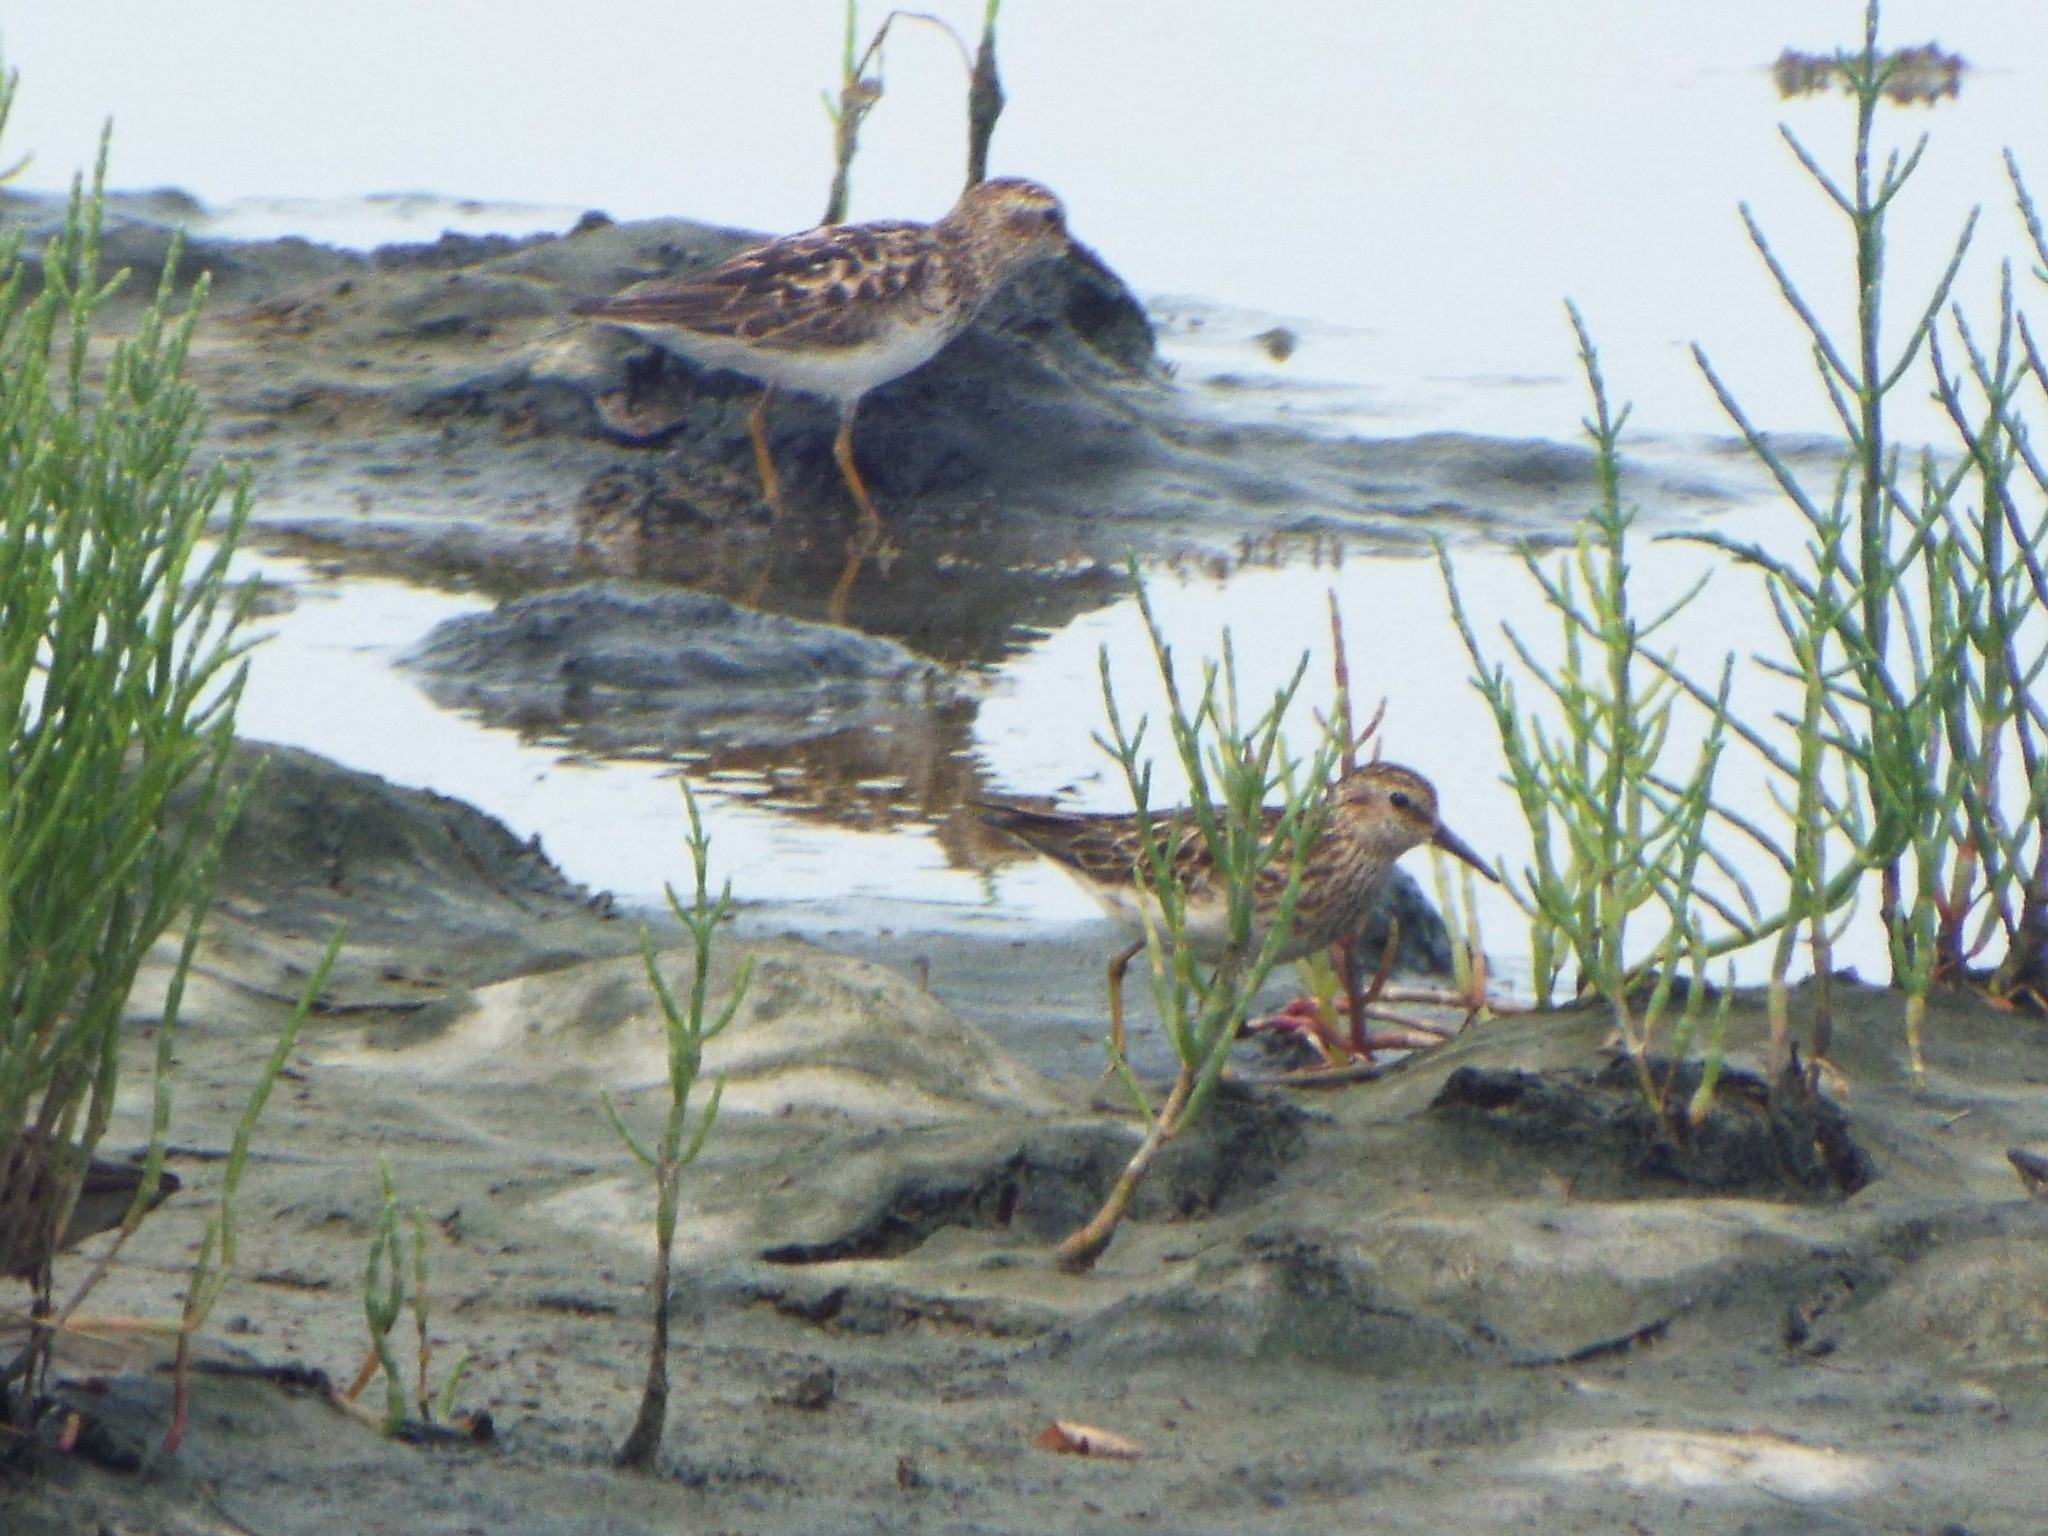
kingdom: Animalia
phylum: Chordata
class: Aves
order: Charadriiformes
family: Scolopacidae
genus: Calidris
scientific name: Calidris minutilla
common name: Least sandpiper
